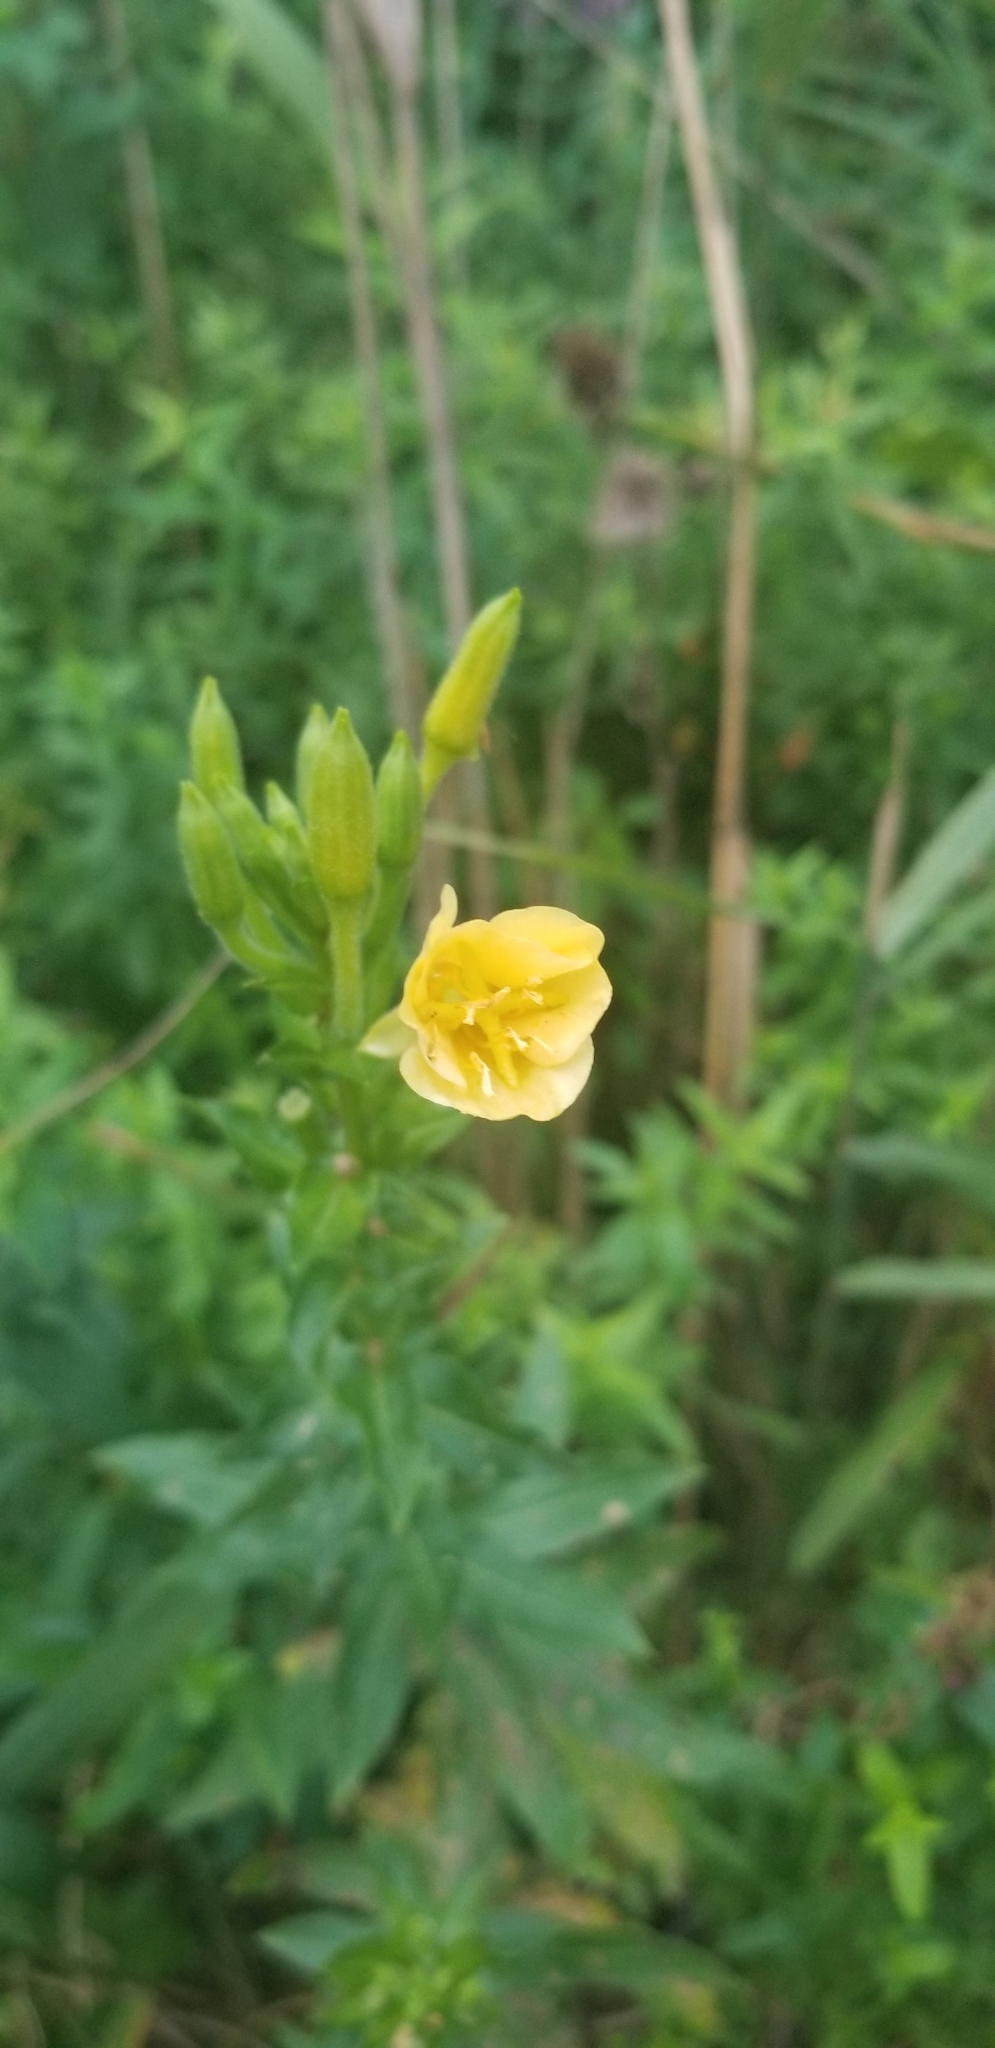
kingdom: Plantae
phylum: Tracheophyta
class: Magnoliopsida
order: Myrtales
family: Onagraceae
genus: Oenothera
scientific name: Oenothera biennis
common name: Common evening-primrose
